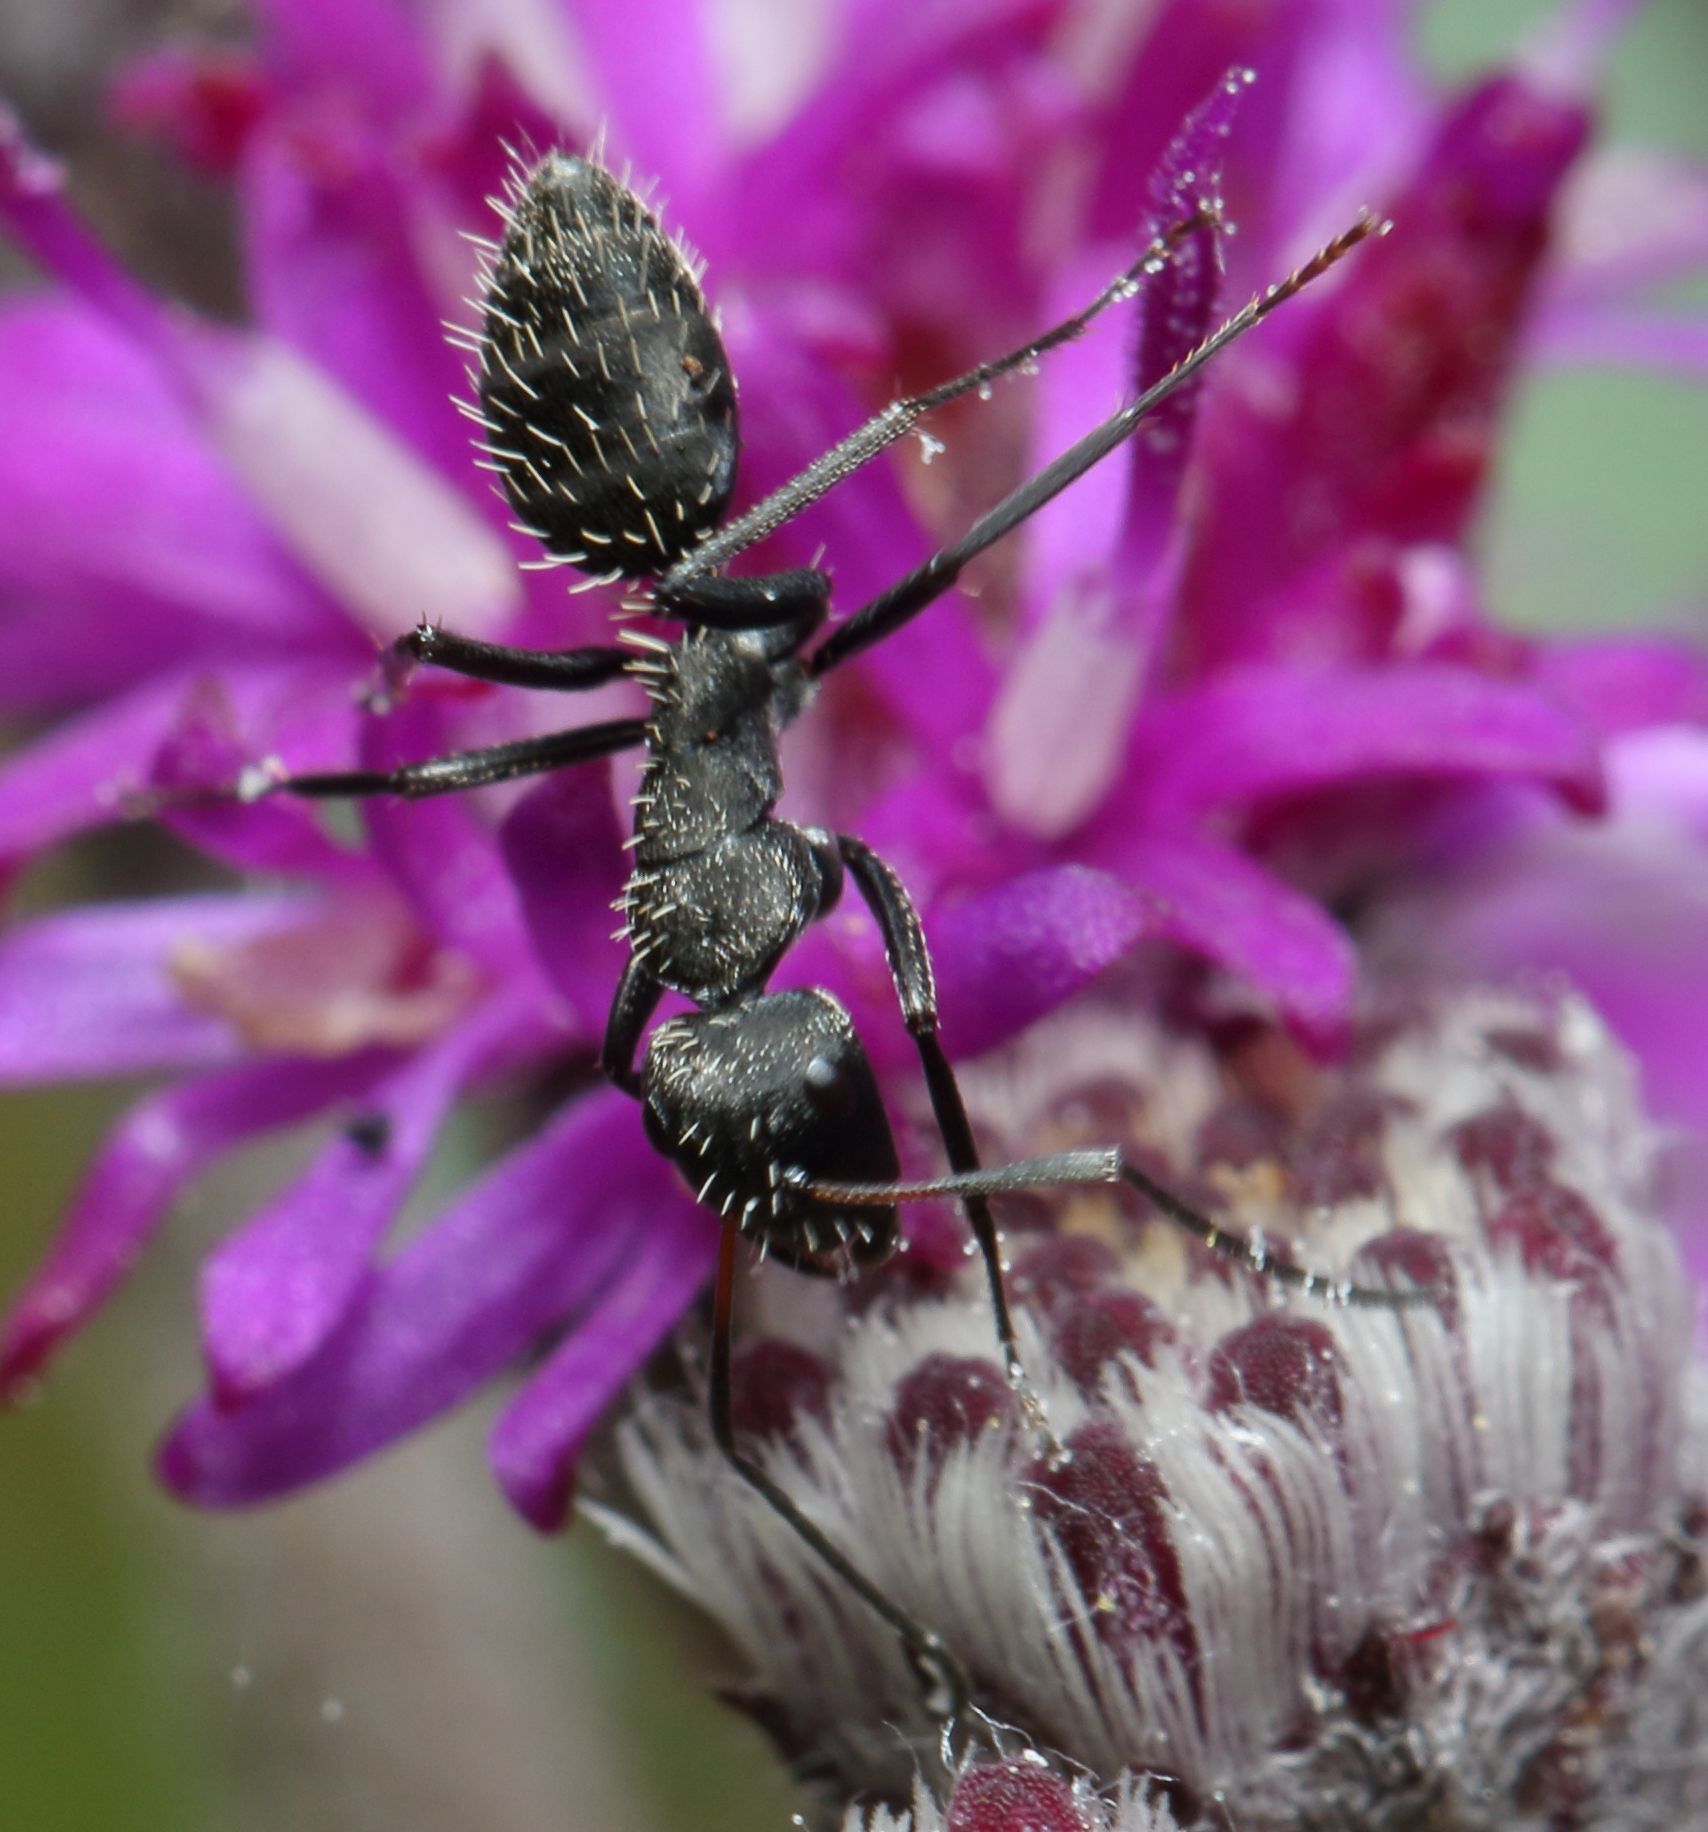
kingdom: Animalia
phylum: Arthropoda
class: Insecta
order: Hymenoptera
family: Formicidae
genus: Camponotus
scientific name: Camponotus niveosetosus
